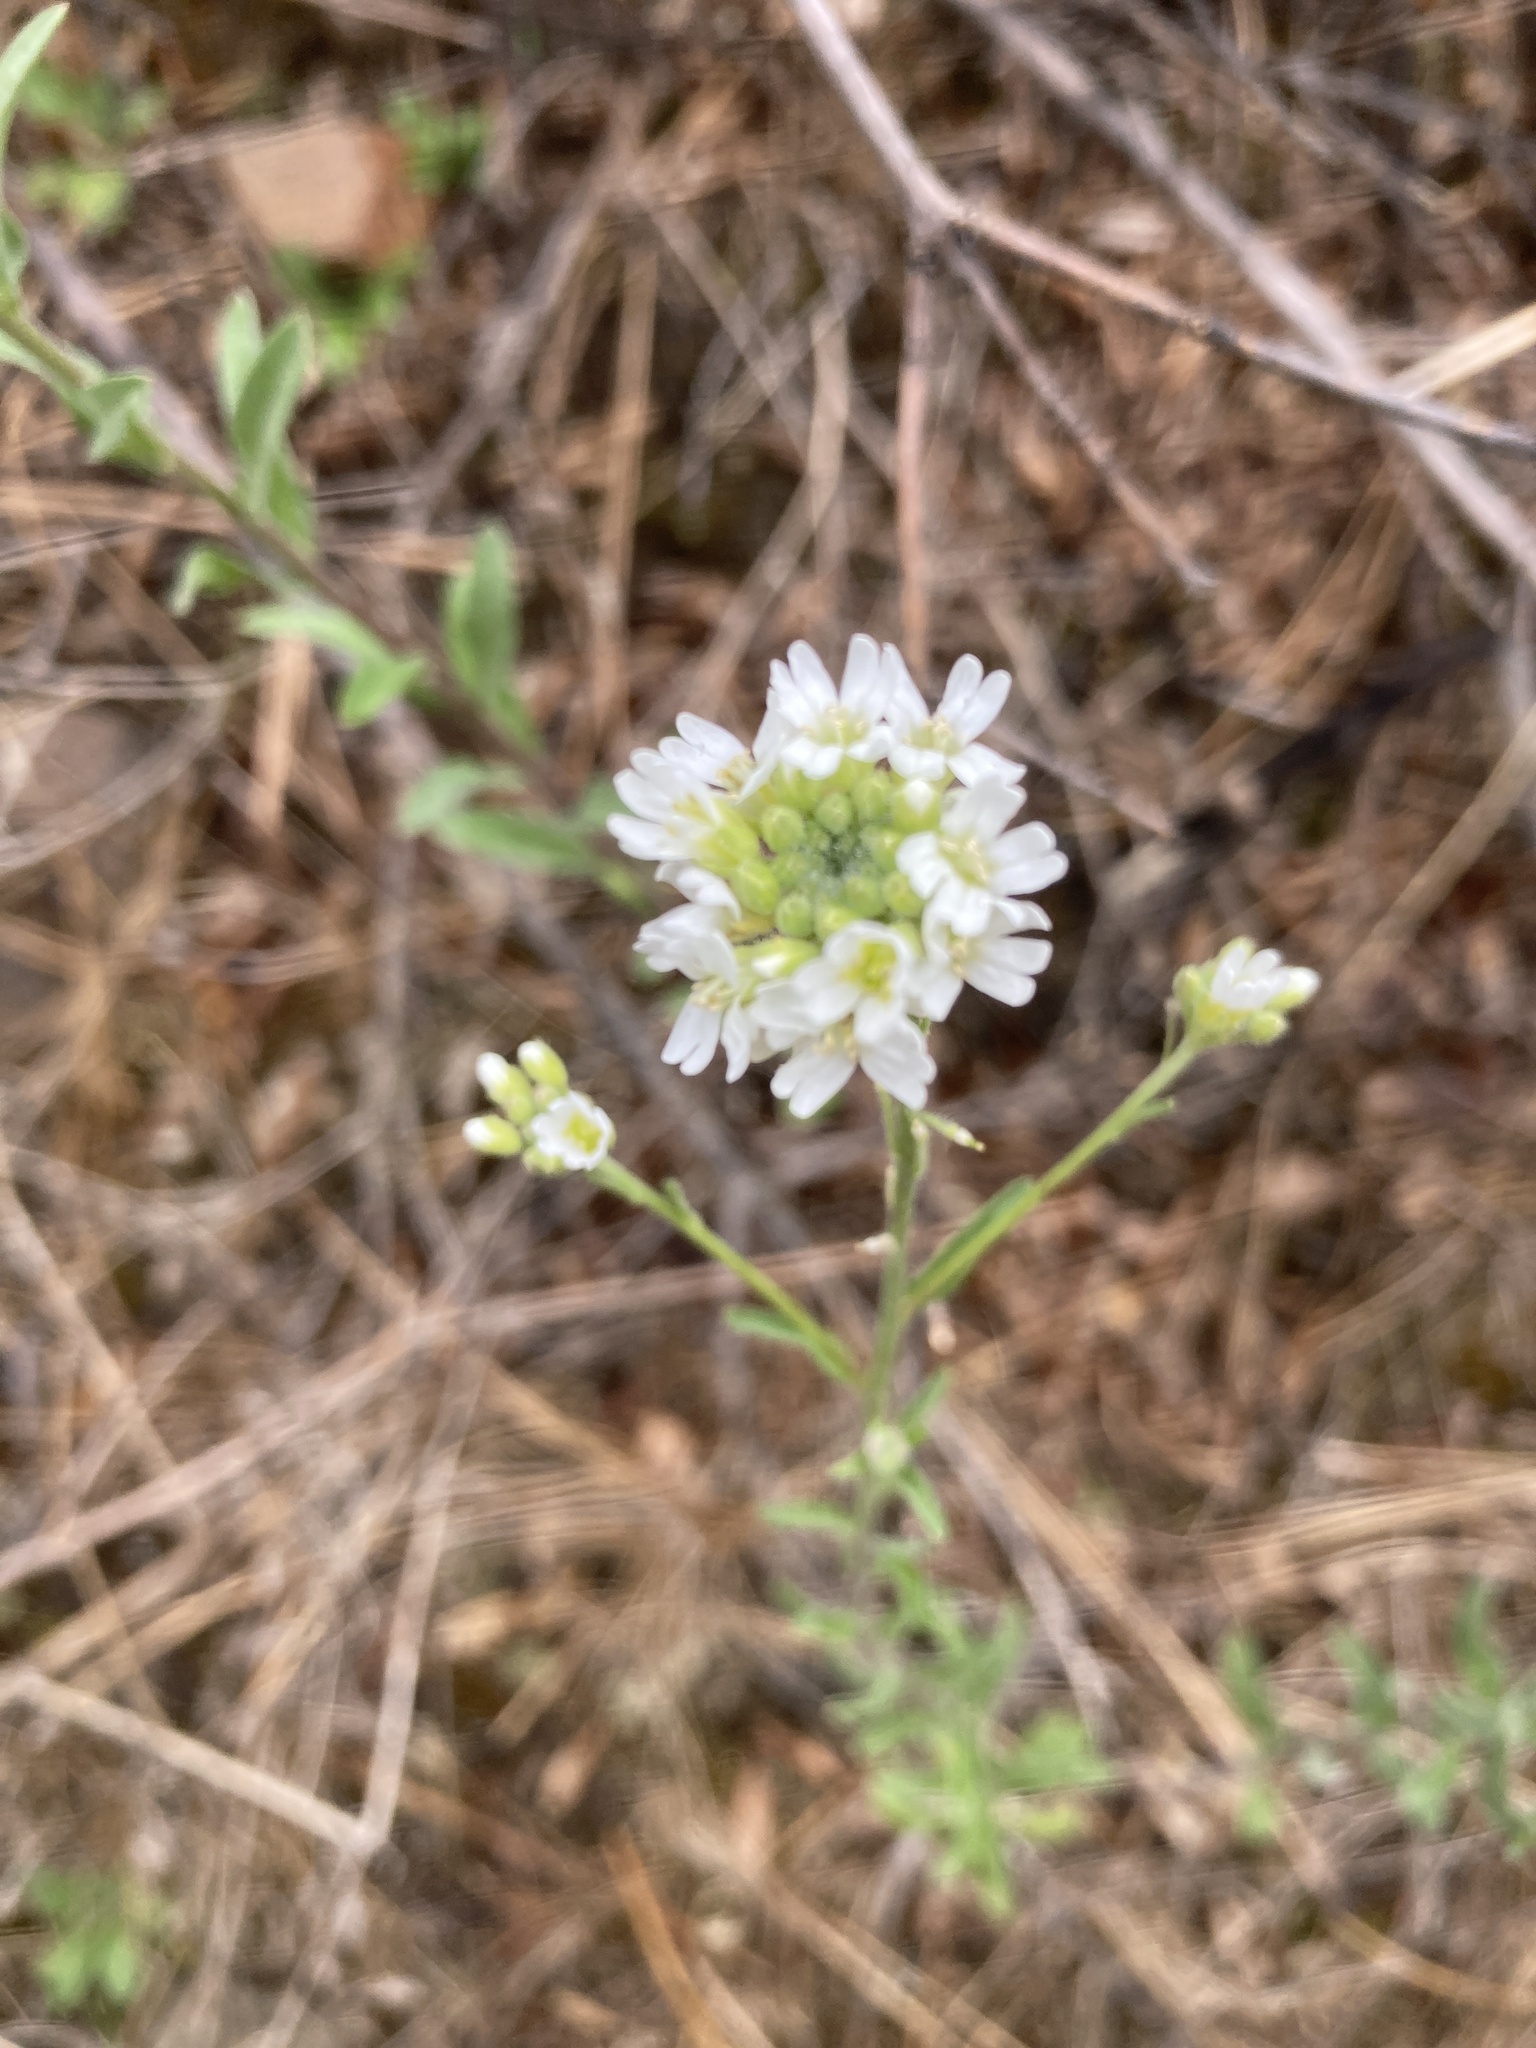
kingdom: Plantae
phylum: Tracheophyta
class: Magnoliopsida
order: Brassicales
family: Brassicaceae
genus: Berteroa
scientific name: Berteroa incana
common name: Hoary alison
